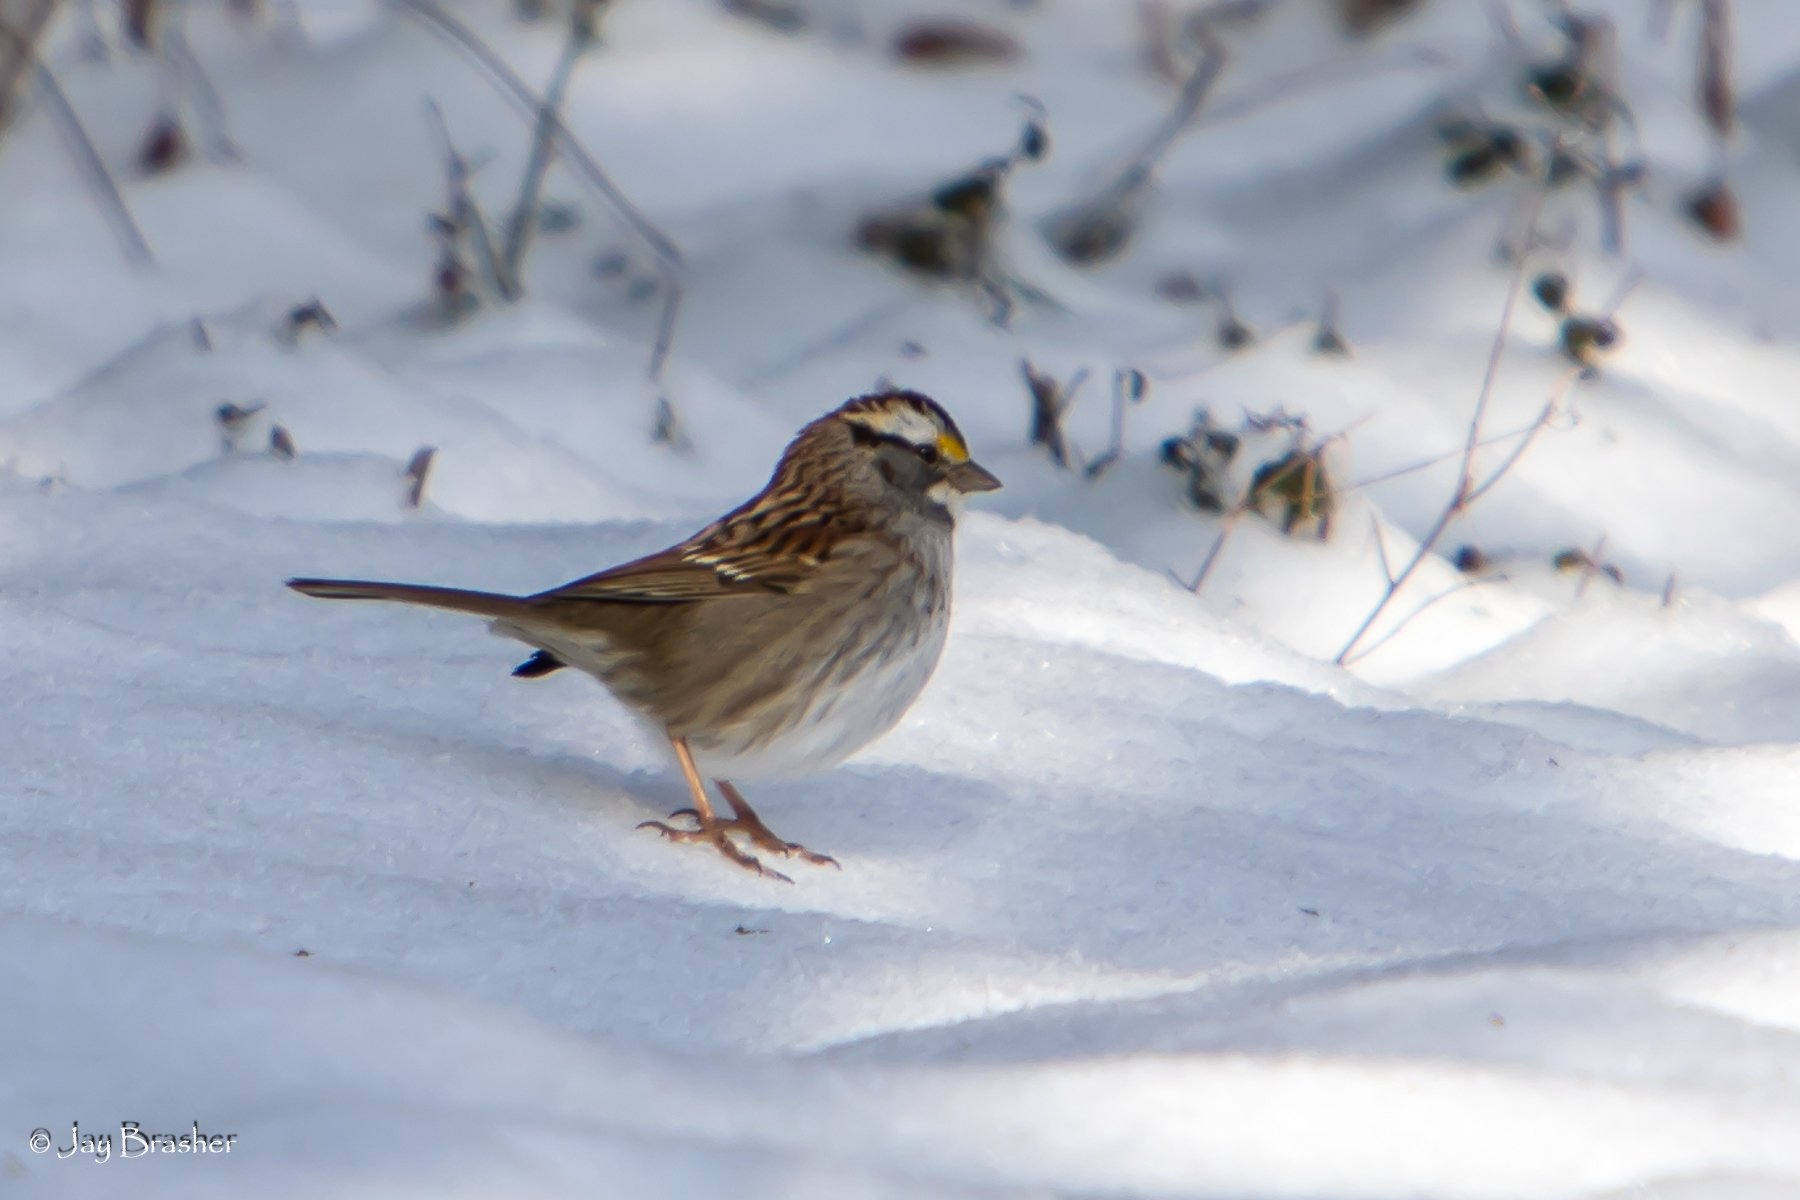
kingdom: Animalia
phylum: Chordata
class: Aves
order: Passeriformes
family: Passerellidae
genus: Zonotrichia
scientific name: Zonotrichia albicollis
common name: White-throated sparrow
